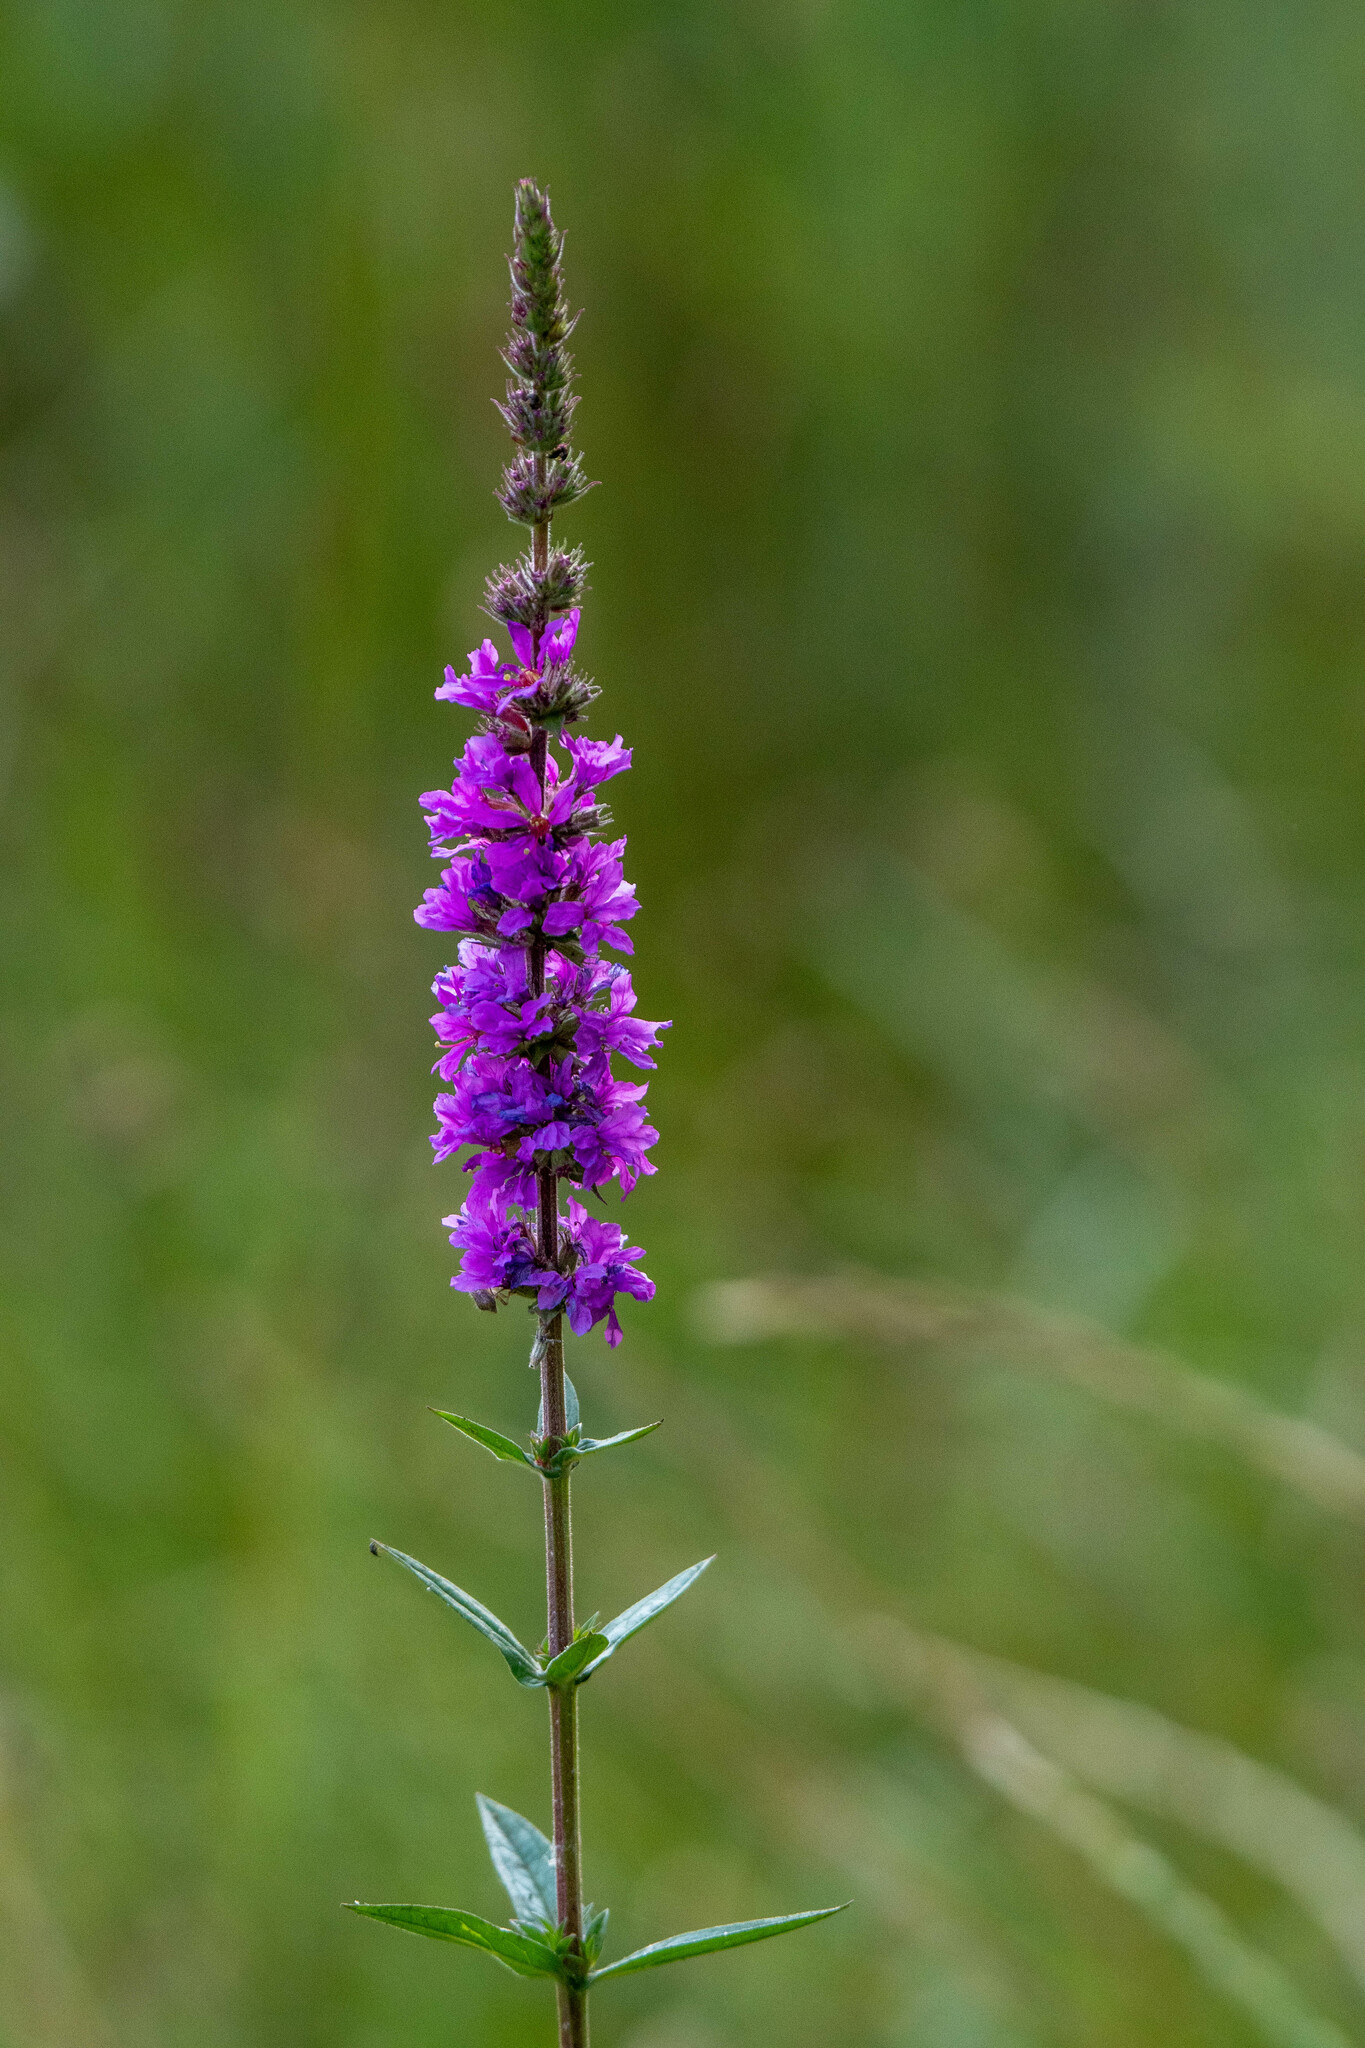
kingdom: Plantae
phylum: Tracheophyta
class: Magnoliopsida
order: Myrtales
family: Lythraceae
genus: Lythrum
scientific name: Lythrum salicaria
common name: Purple loosestrife
